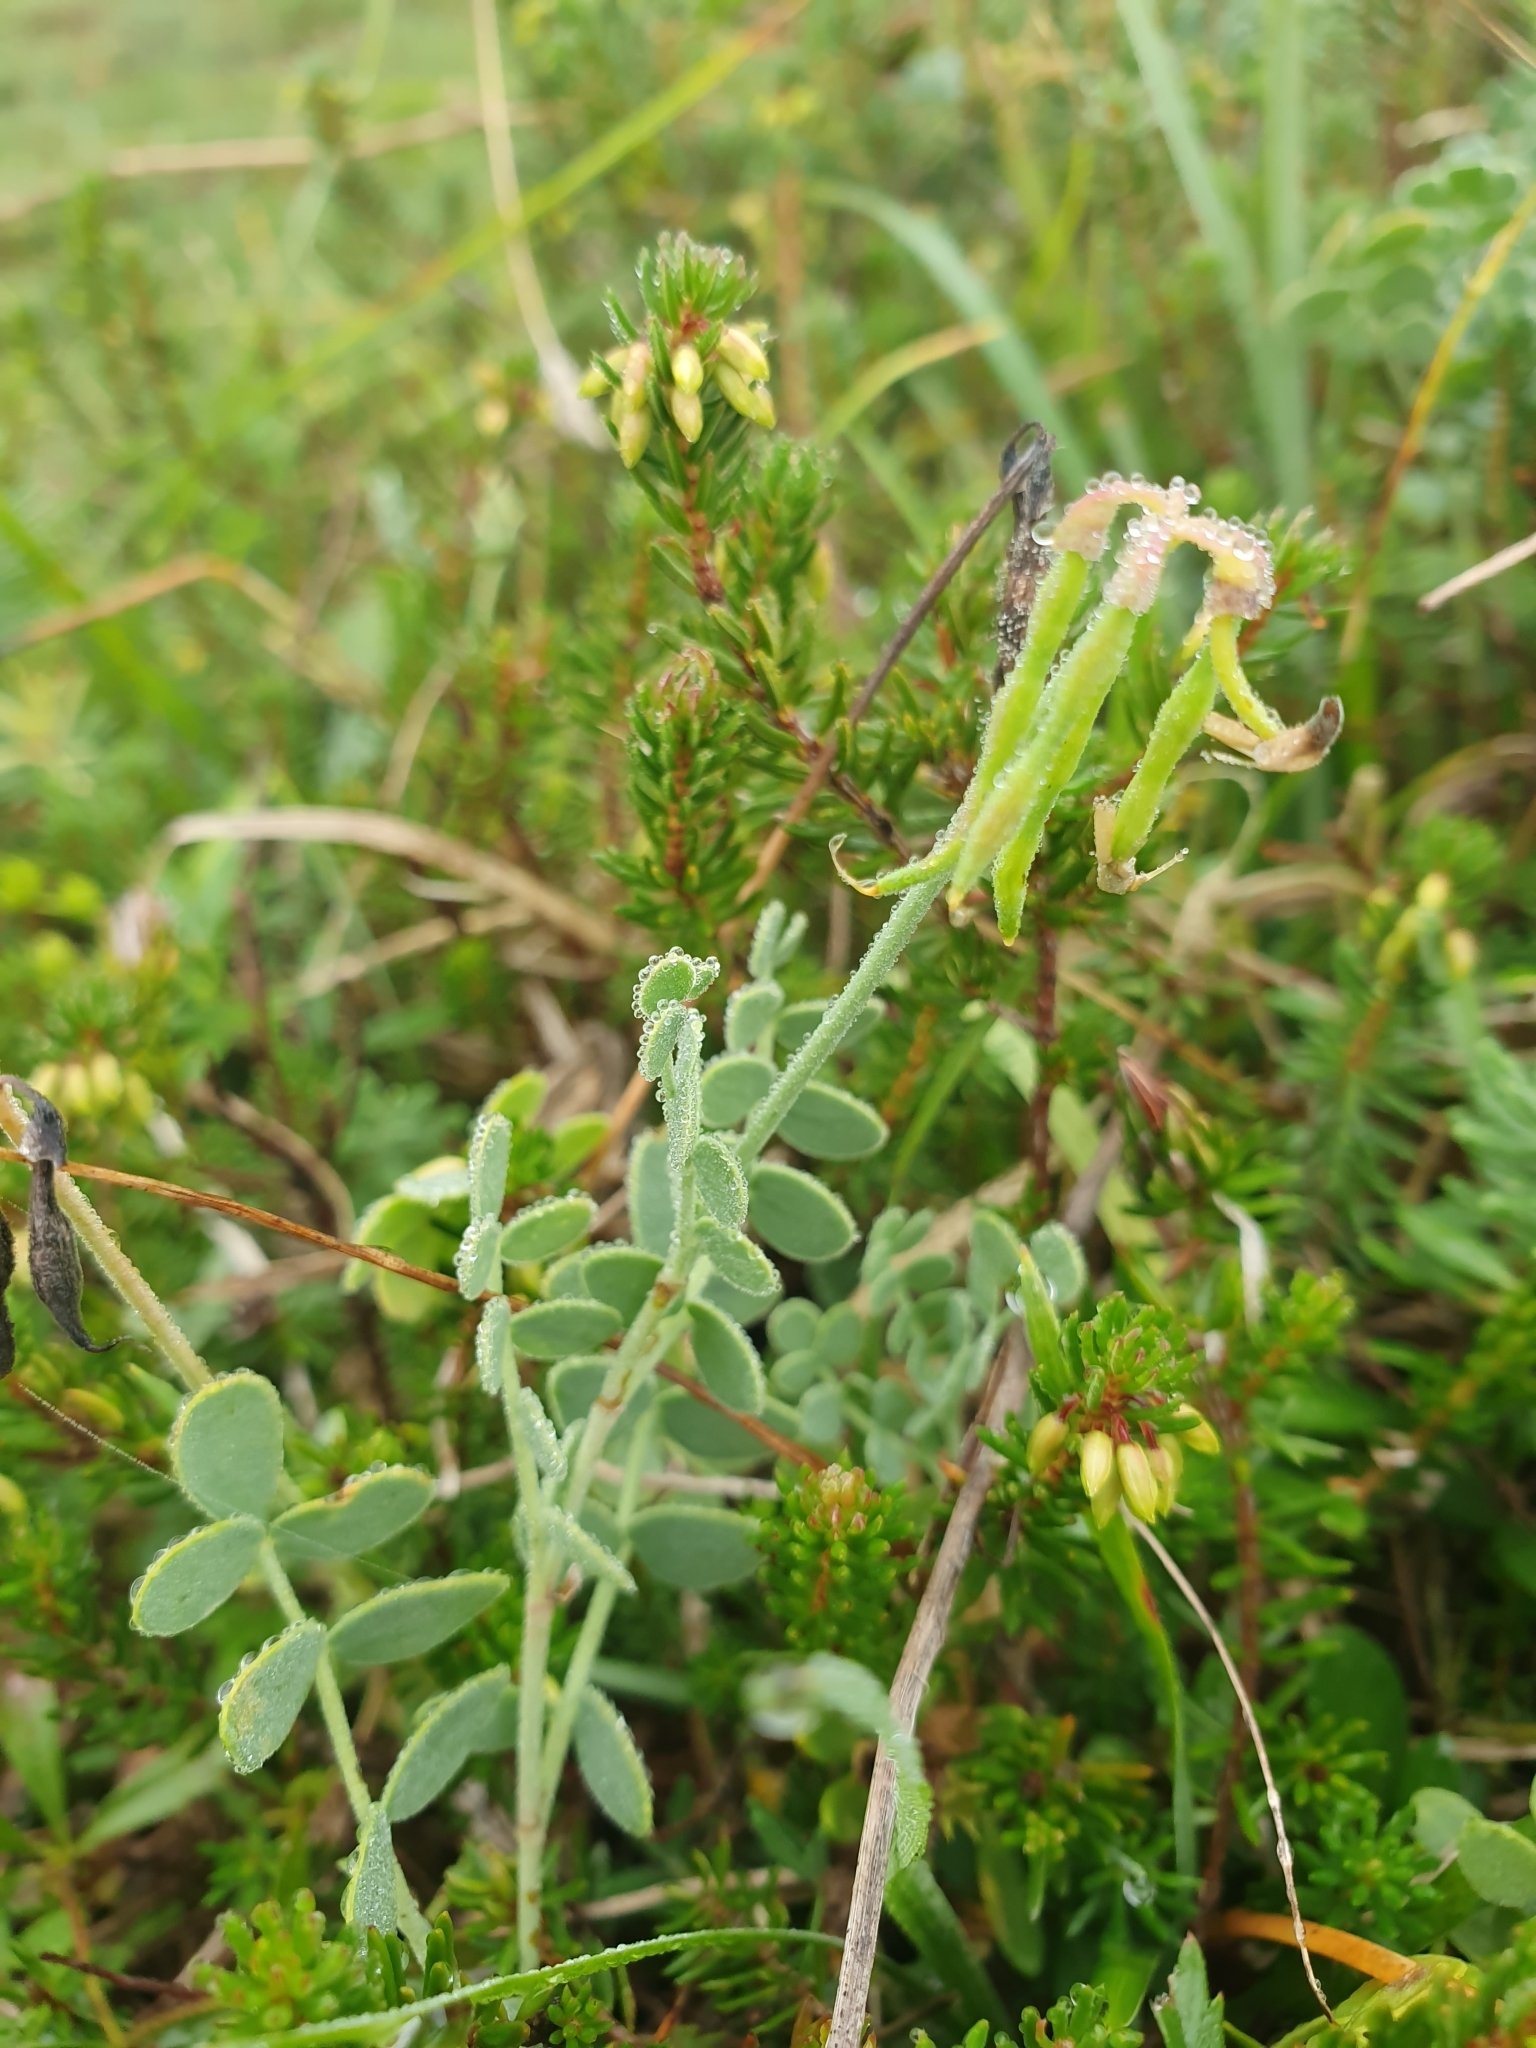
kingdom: Plantae
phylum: Tracheophyta
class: Magnoliopsida
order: Fabales
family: Fabaceae
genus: Coronilla
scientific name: Coronilla vaginalis
